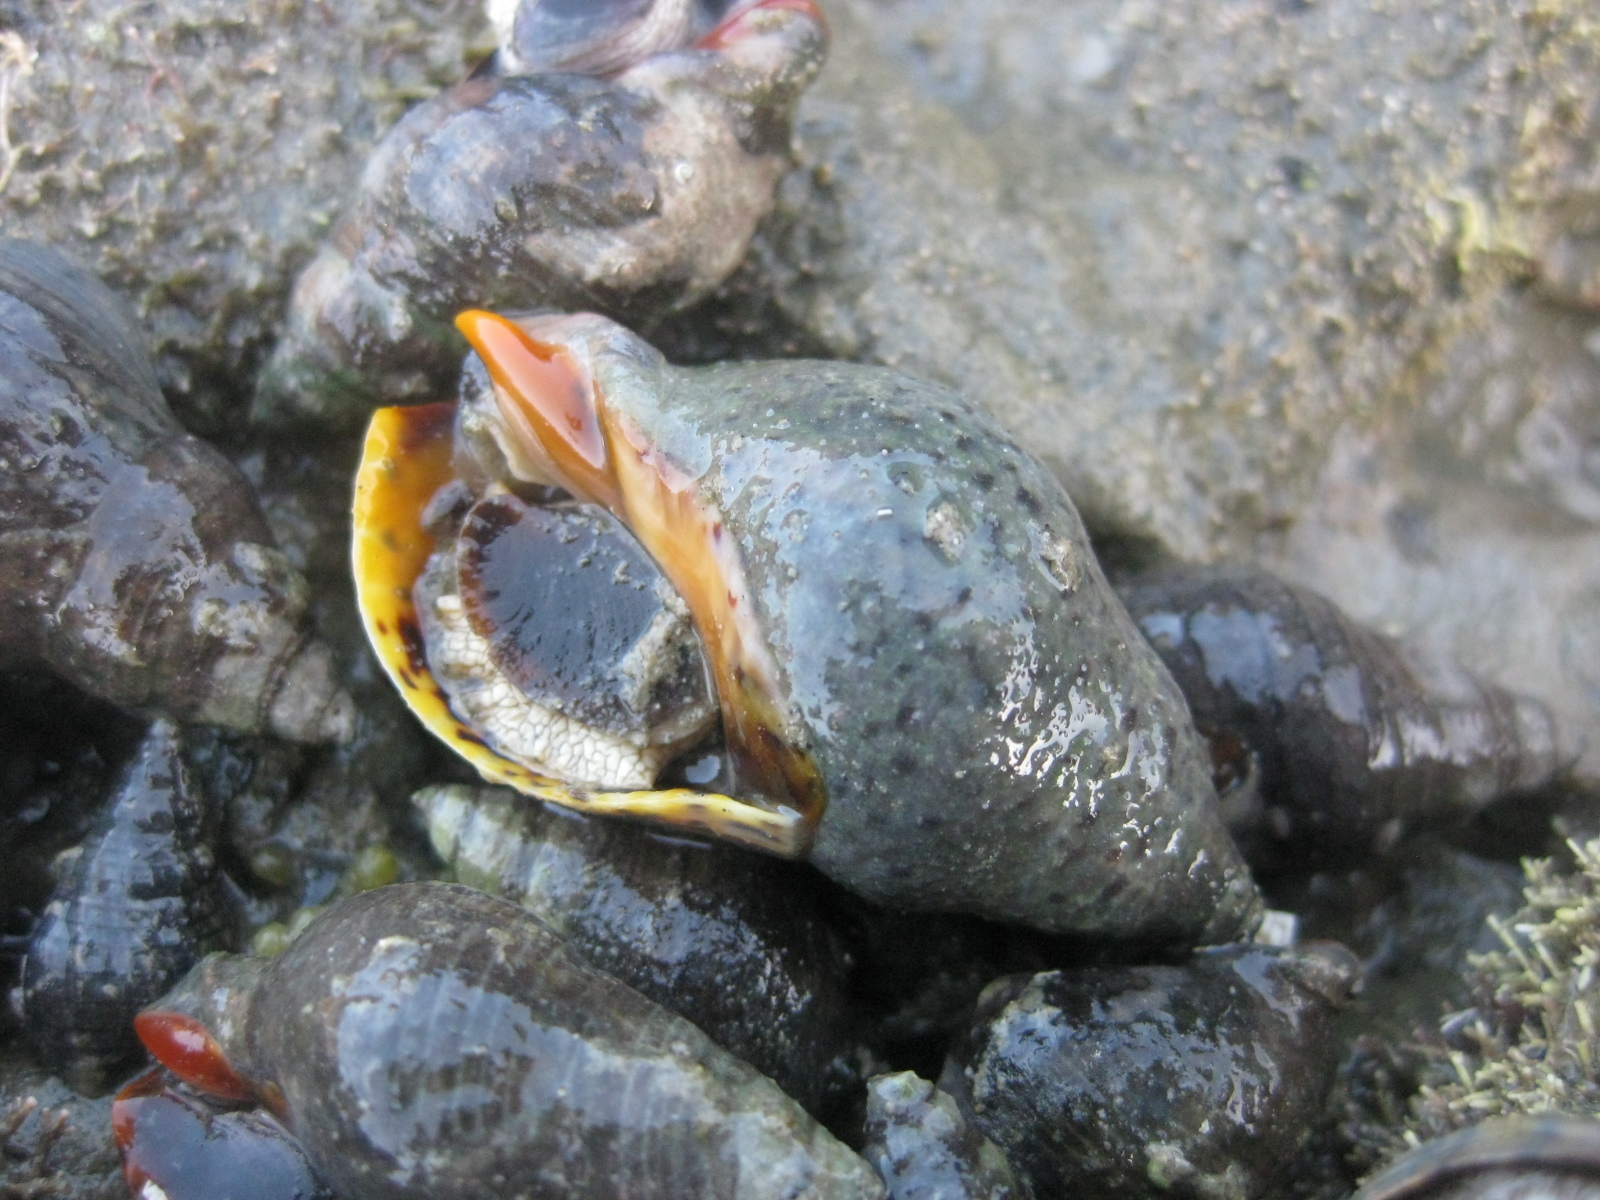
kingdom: Animalia
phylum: Mollusca
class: Gastropoda
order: Neogastropoda
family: Cominellidae
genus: Cominella
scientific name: Cominella maculosa
